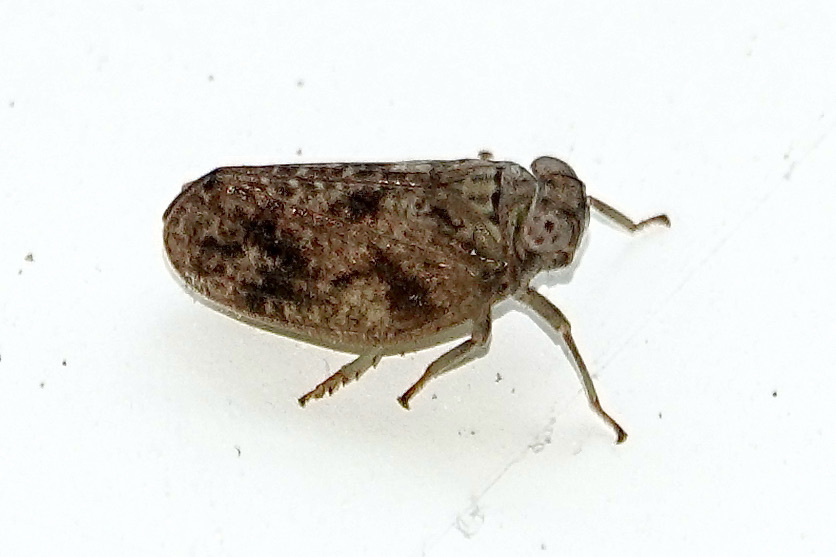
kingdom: Animalia
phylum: Arthropoda
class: Insecta
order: Hemiptera
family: Issidae
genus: Thionia
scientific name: Thionia bullata
